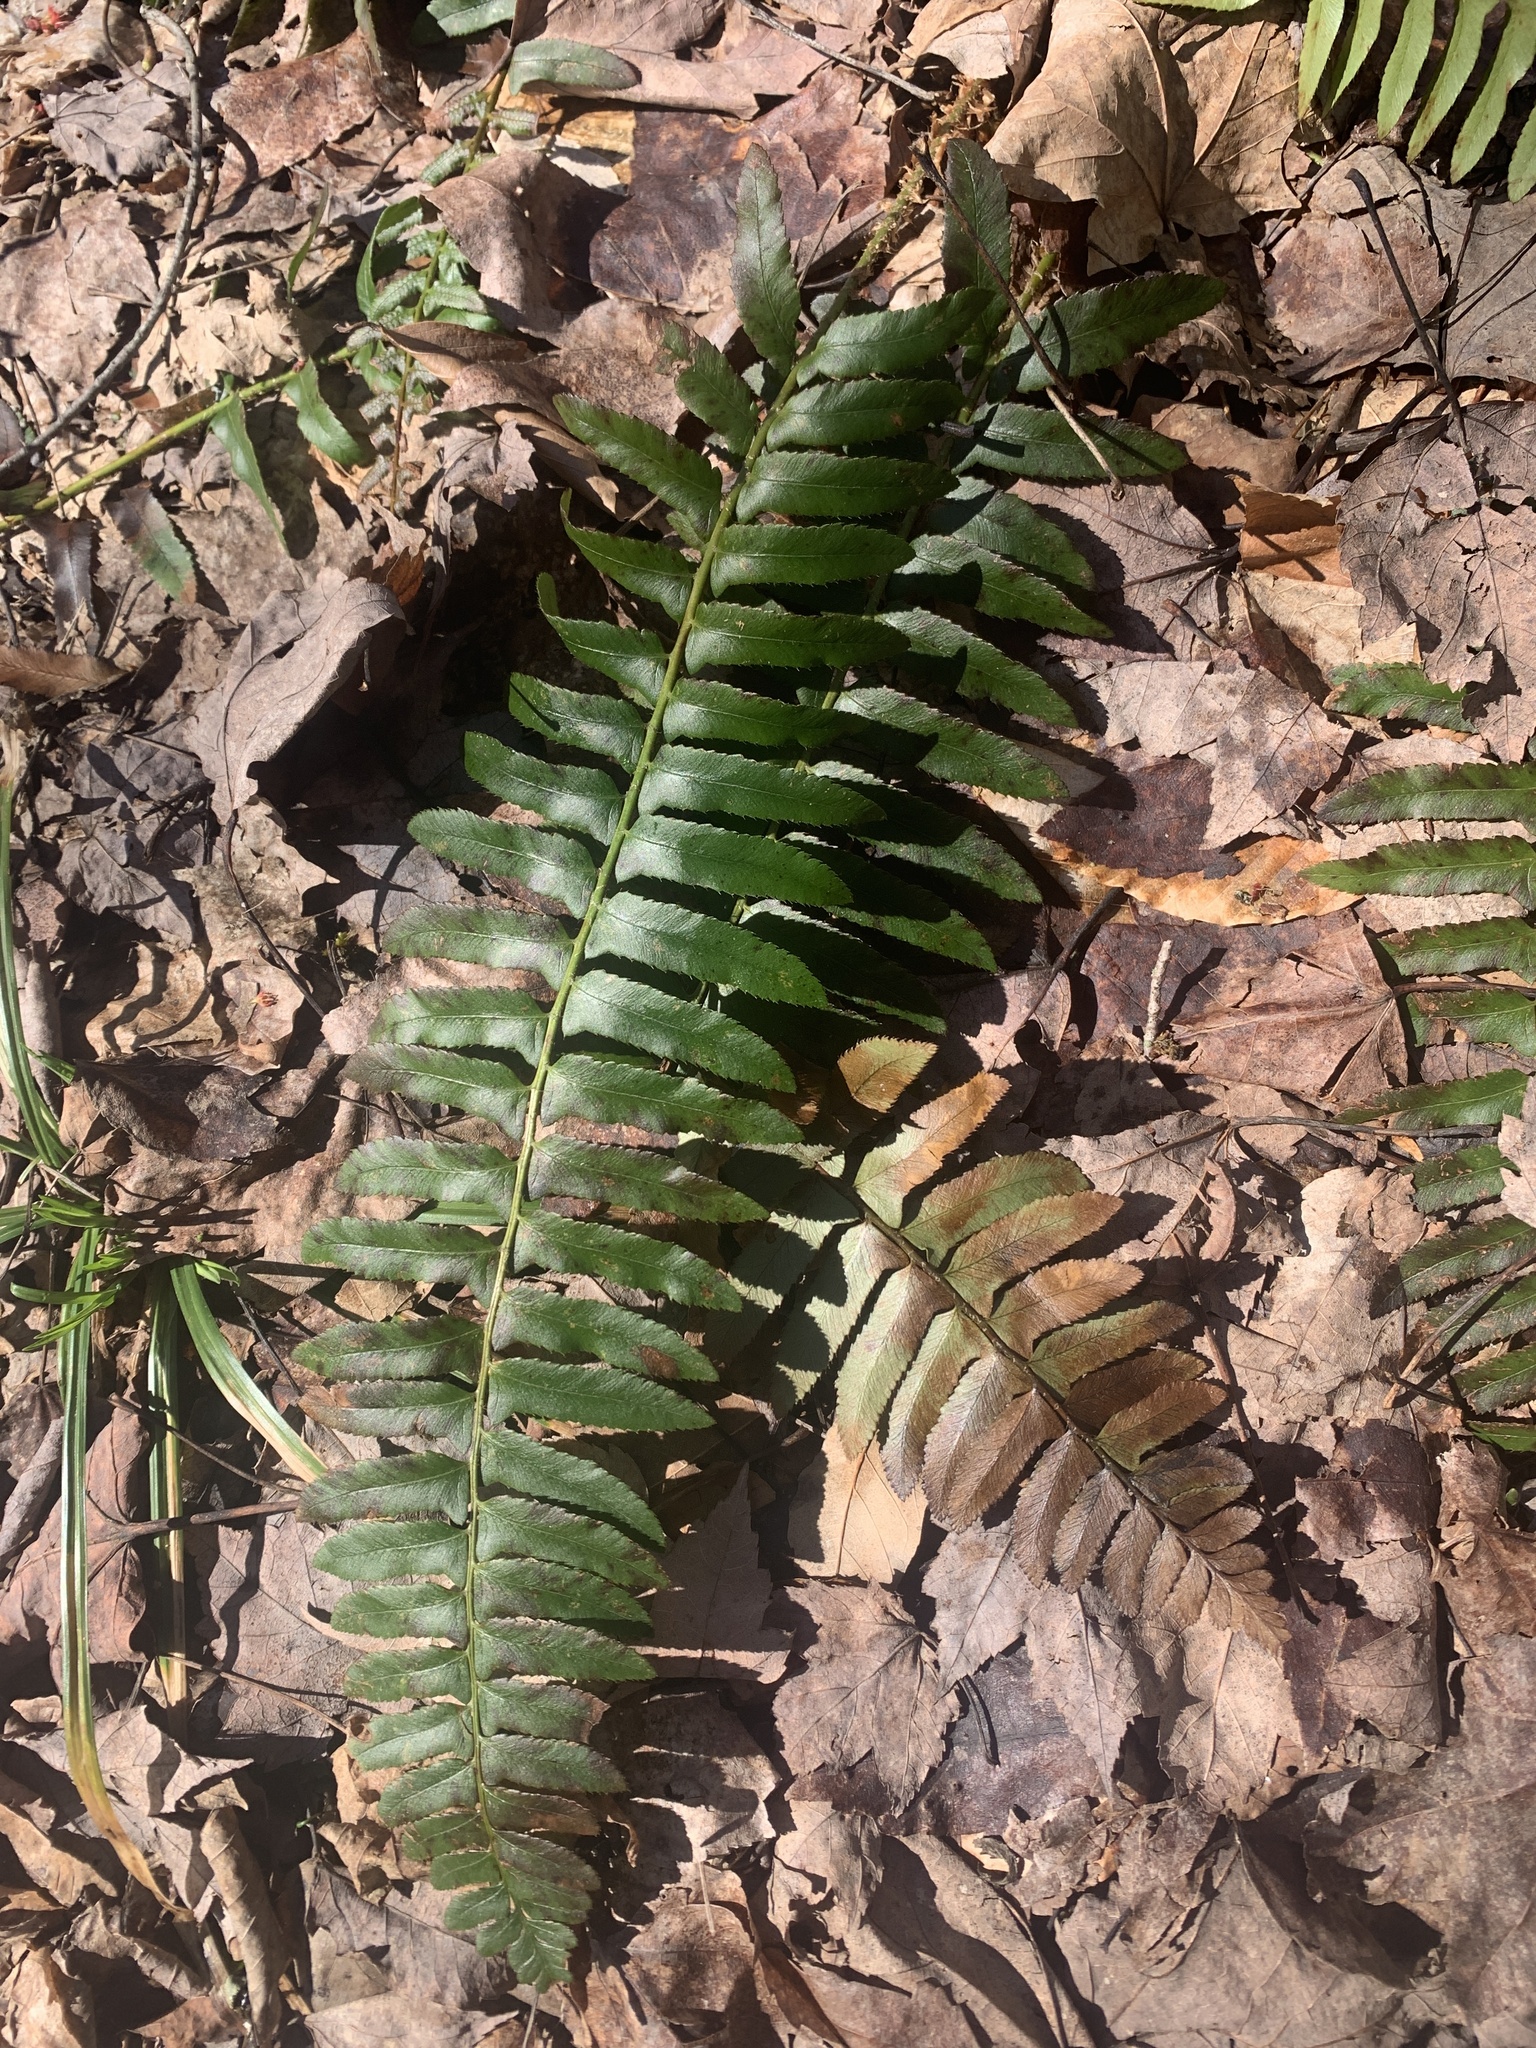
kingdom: Plantae
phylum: Tracheophyta
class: Polypodiopsida
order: Polypodiales
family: Dryopteridaceae
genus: Polystichum
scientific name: Polystichum acrostichoides
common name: Christmas fern
